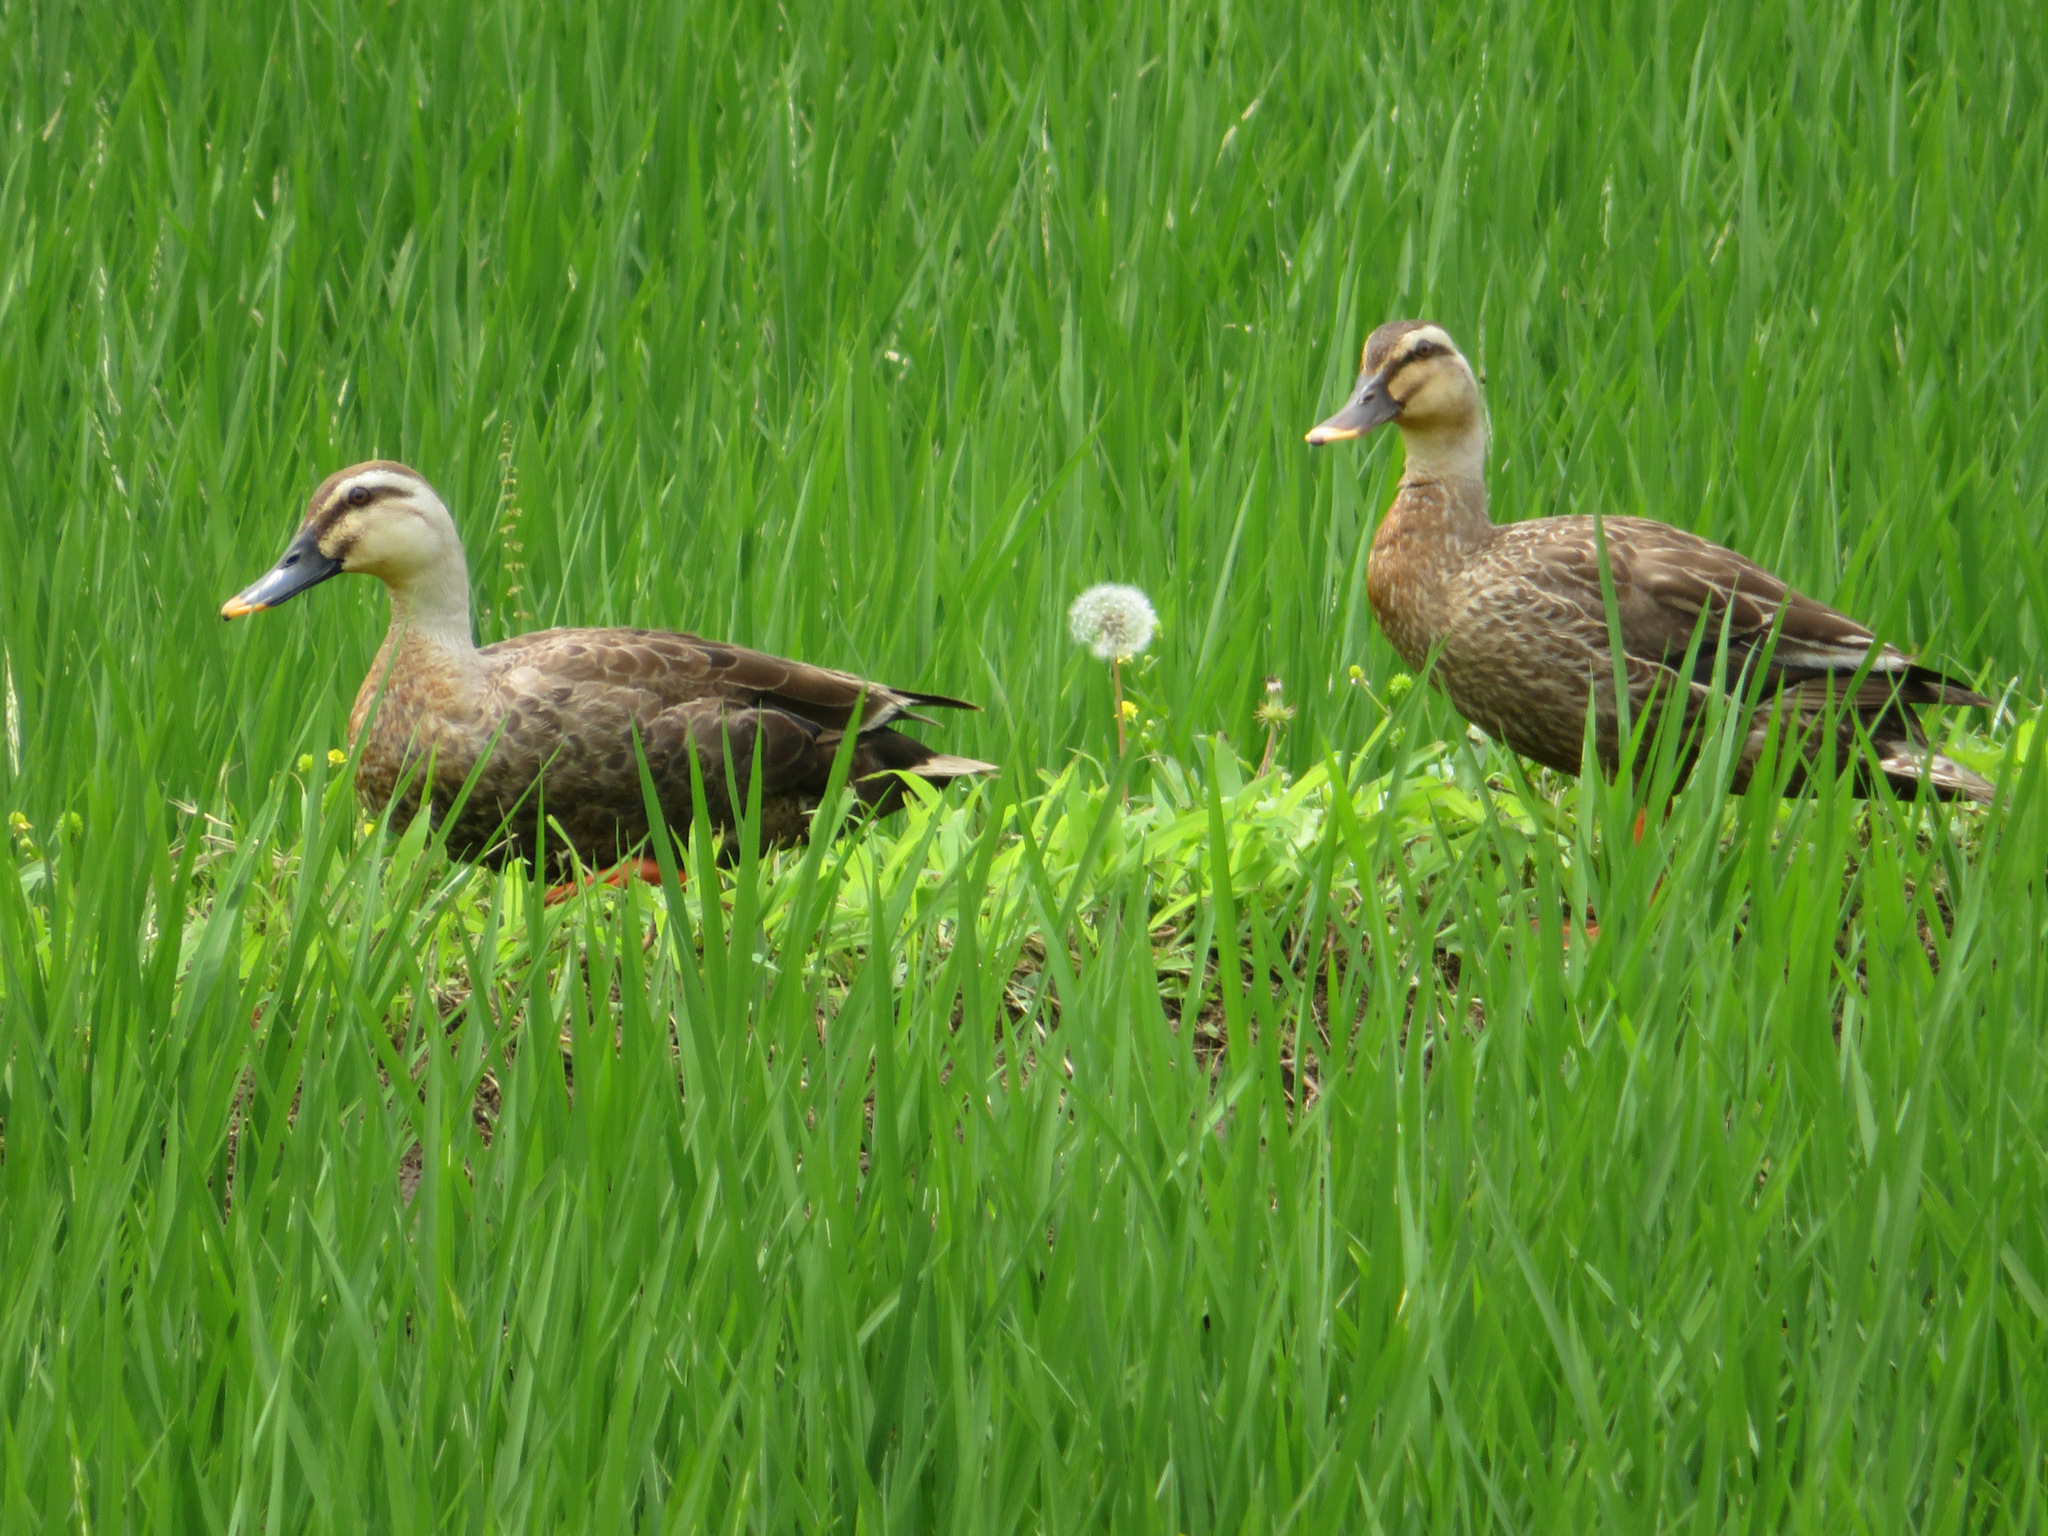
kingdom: Animalia
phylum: Chordata
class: Aves
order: Anseriformes
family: Anatidae
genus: Anas
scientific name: Anas zonorhyncha
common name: Eastern spot-billed duck
